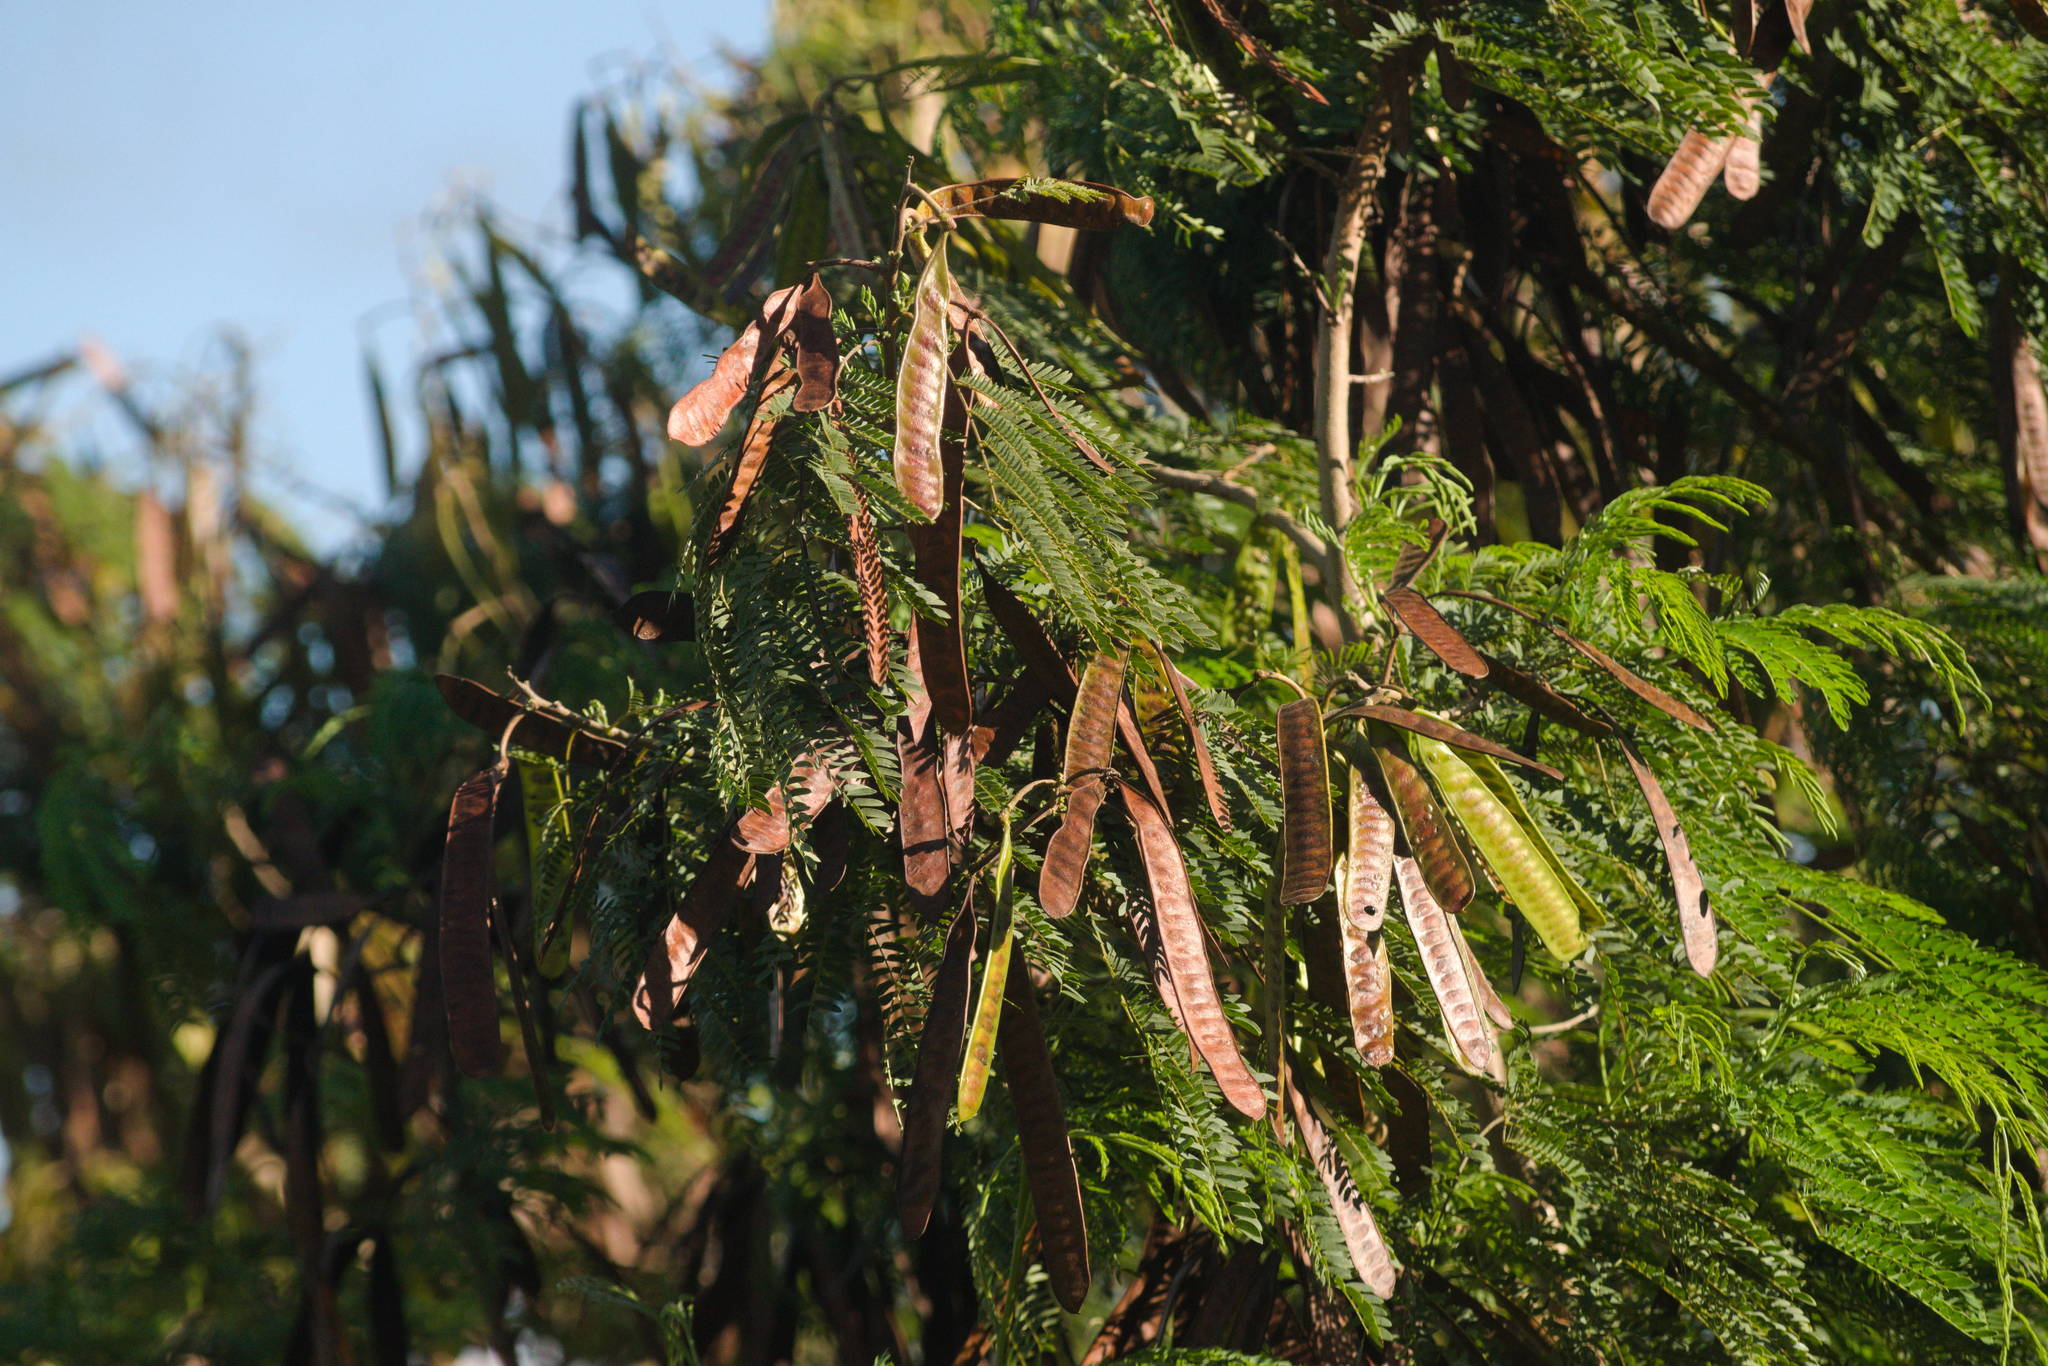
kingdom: Plantae
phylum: Tracheophyta
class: Magnoliopsida
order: Fabales
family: Fabaceae
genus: Leucaena
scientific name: Leucaena leucocephala
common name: White leadtree
